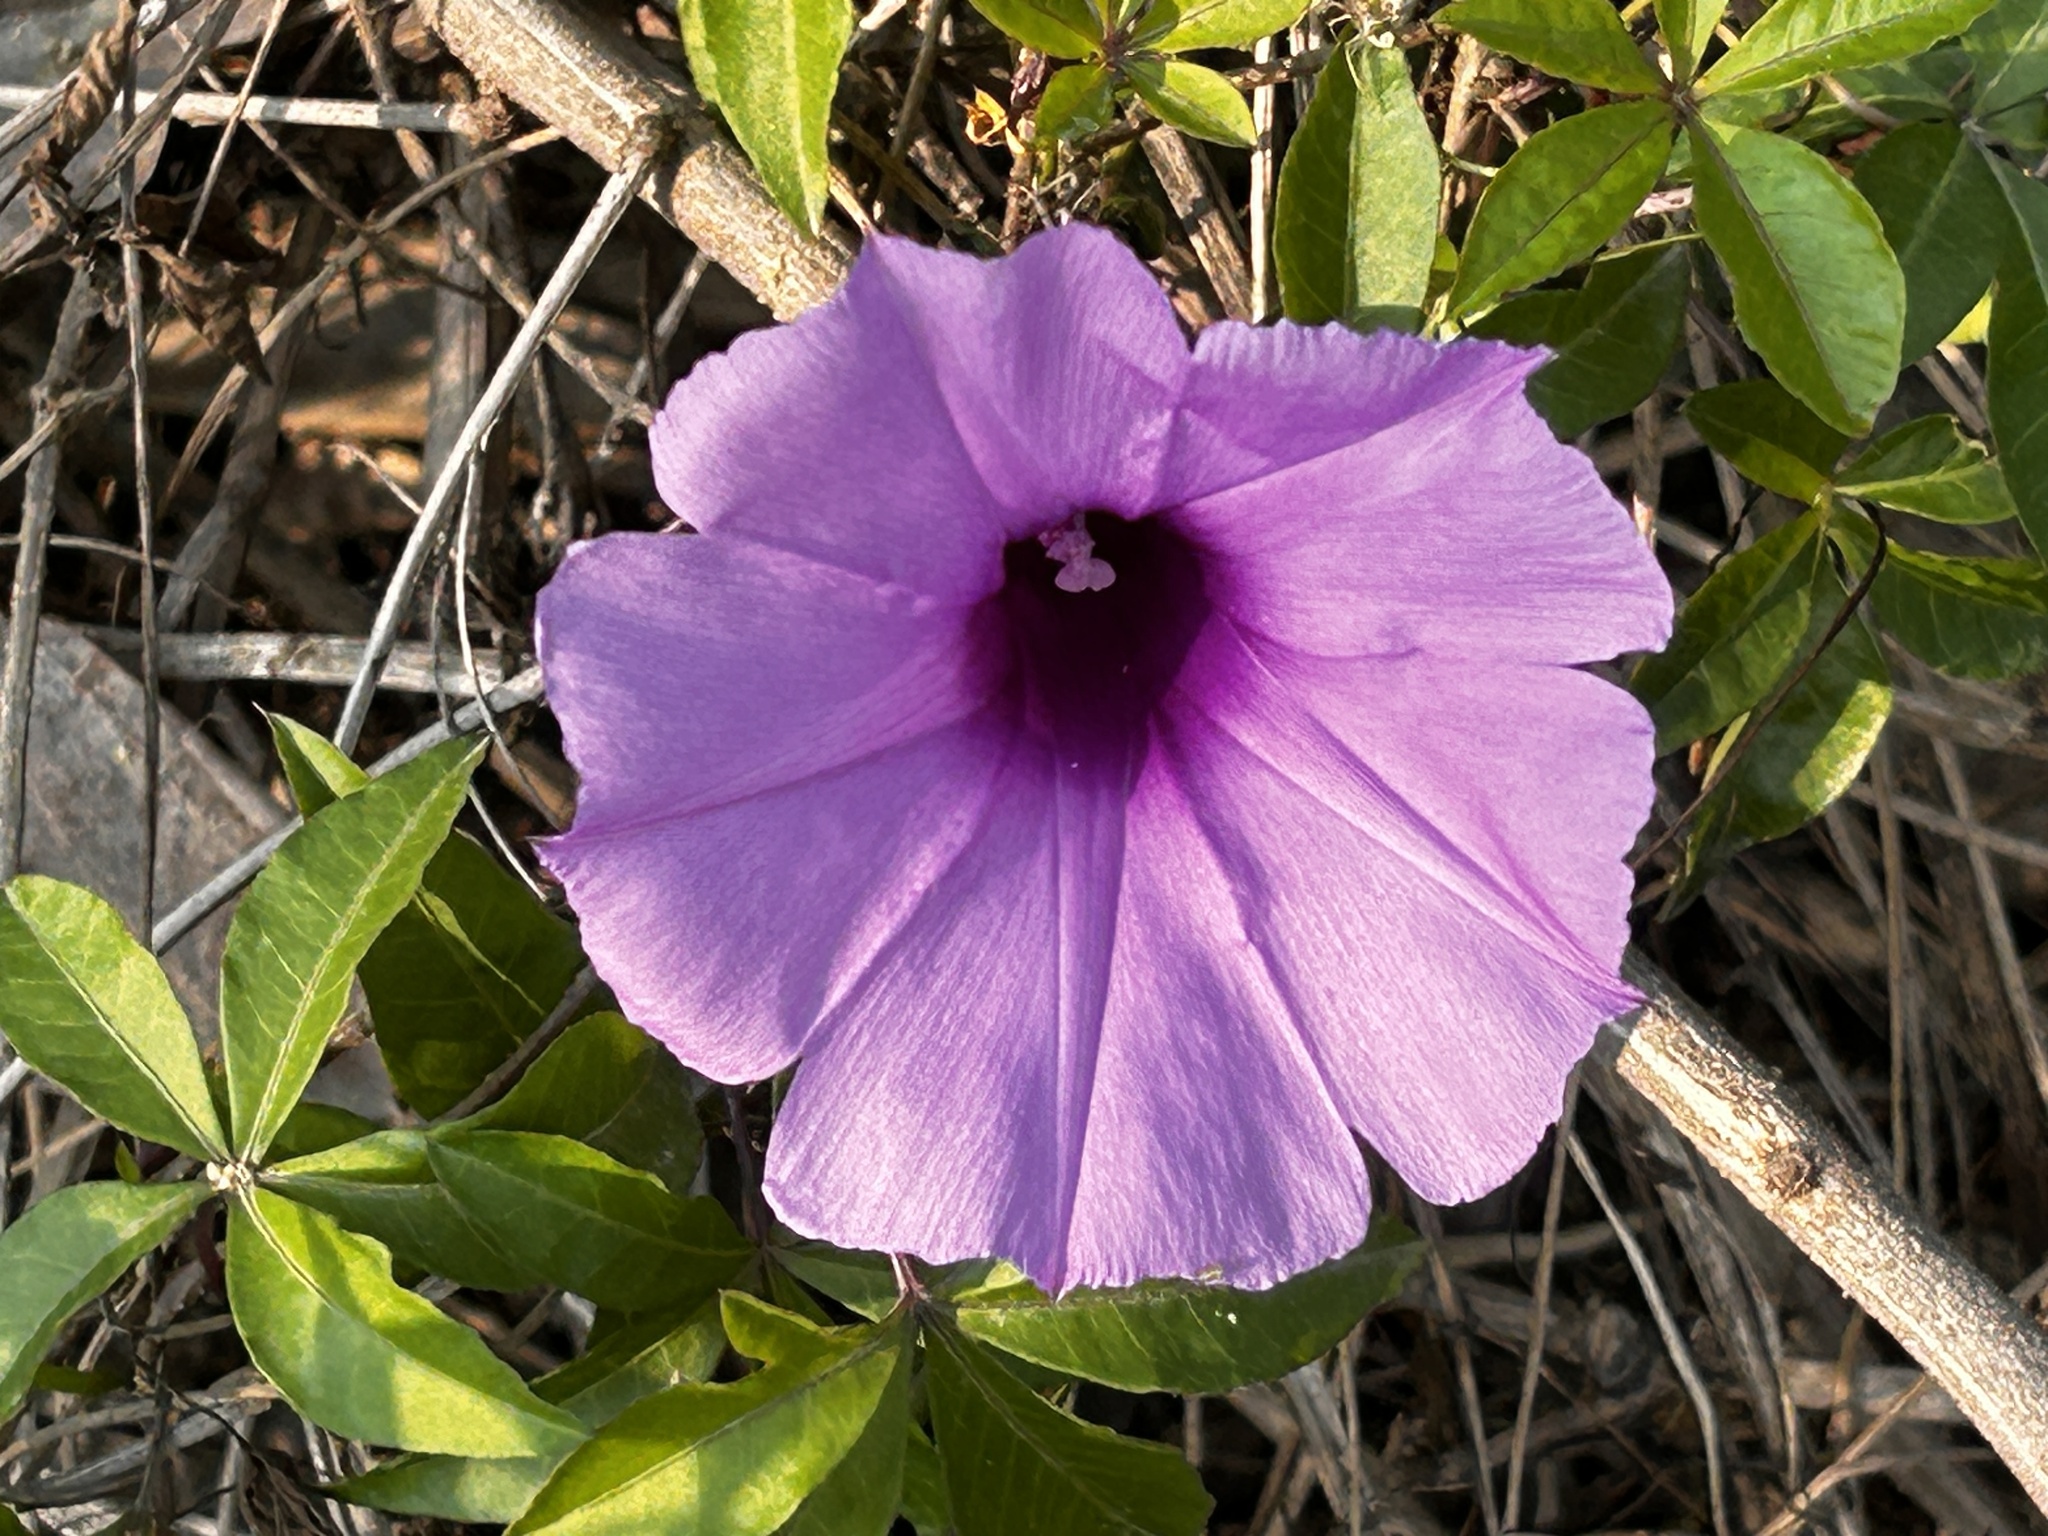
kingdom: Plantae
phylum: Tracheophyta
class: Magnoliopsida
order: Solanales
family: Convolvulaceae
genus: Ipomoea
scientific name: Ipomoea cairica
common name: Mile a minute vine
